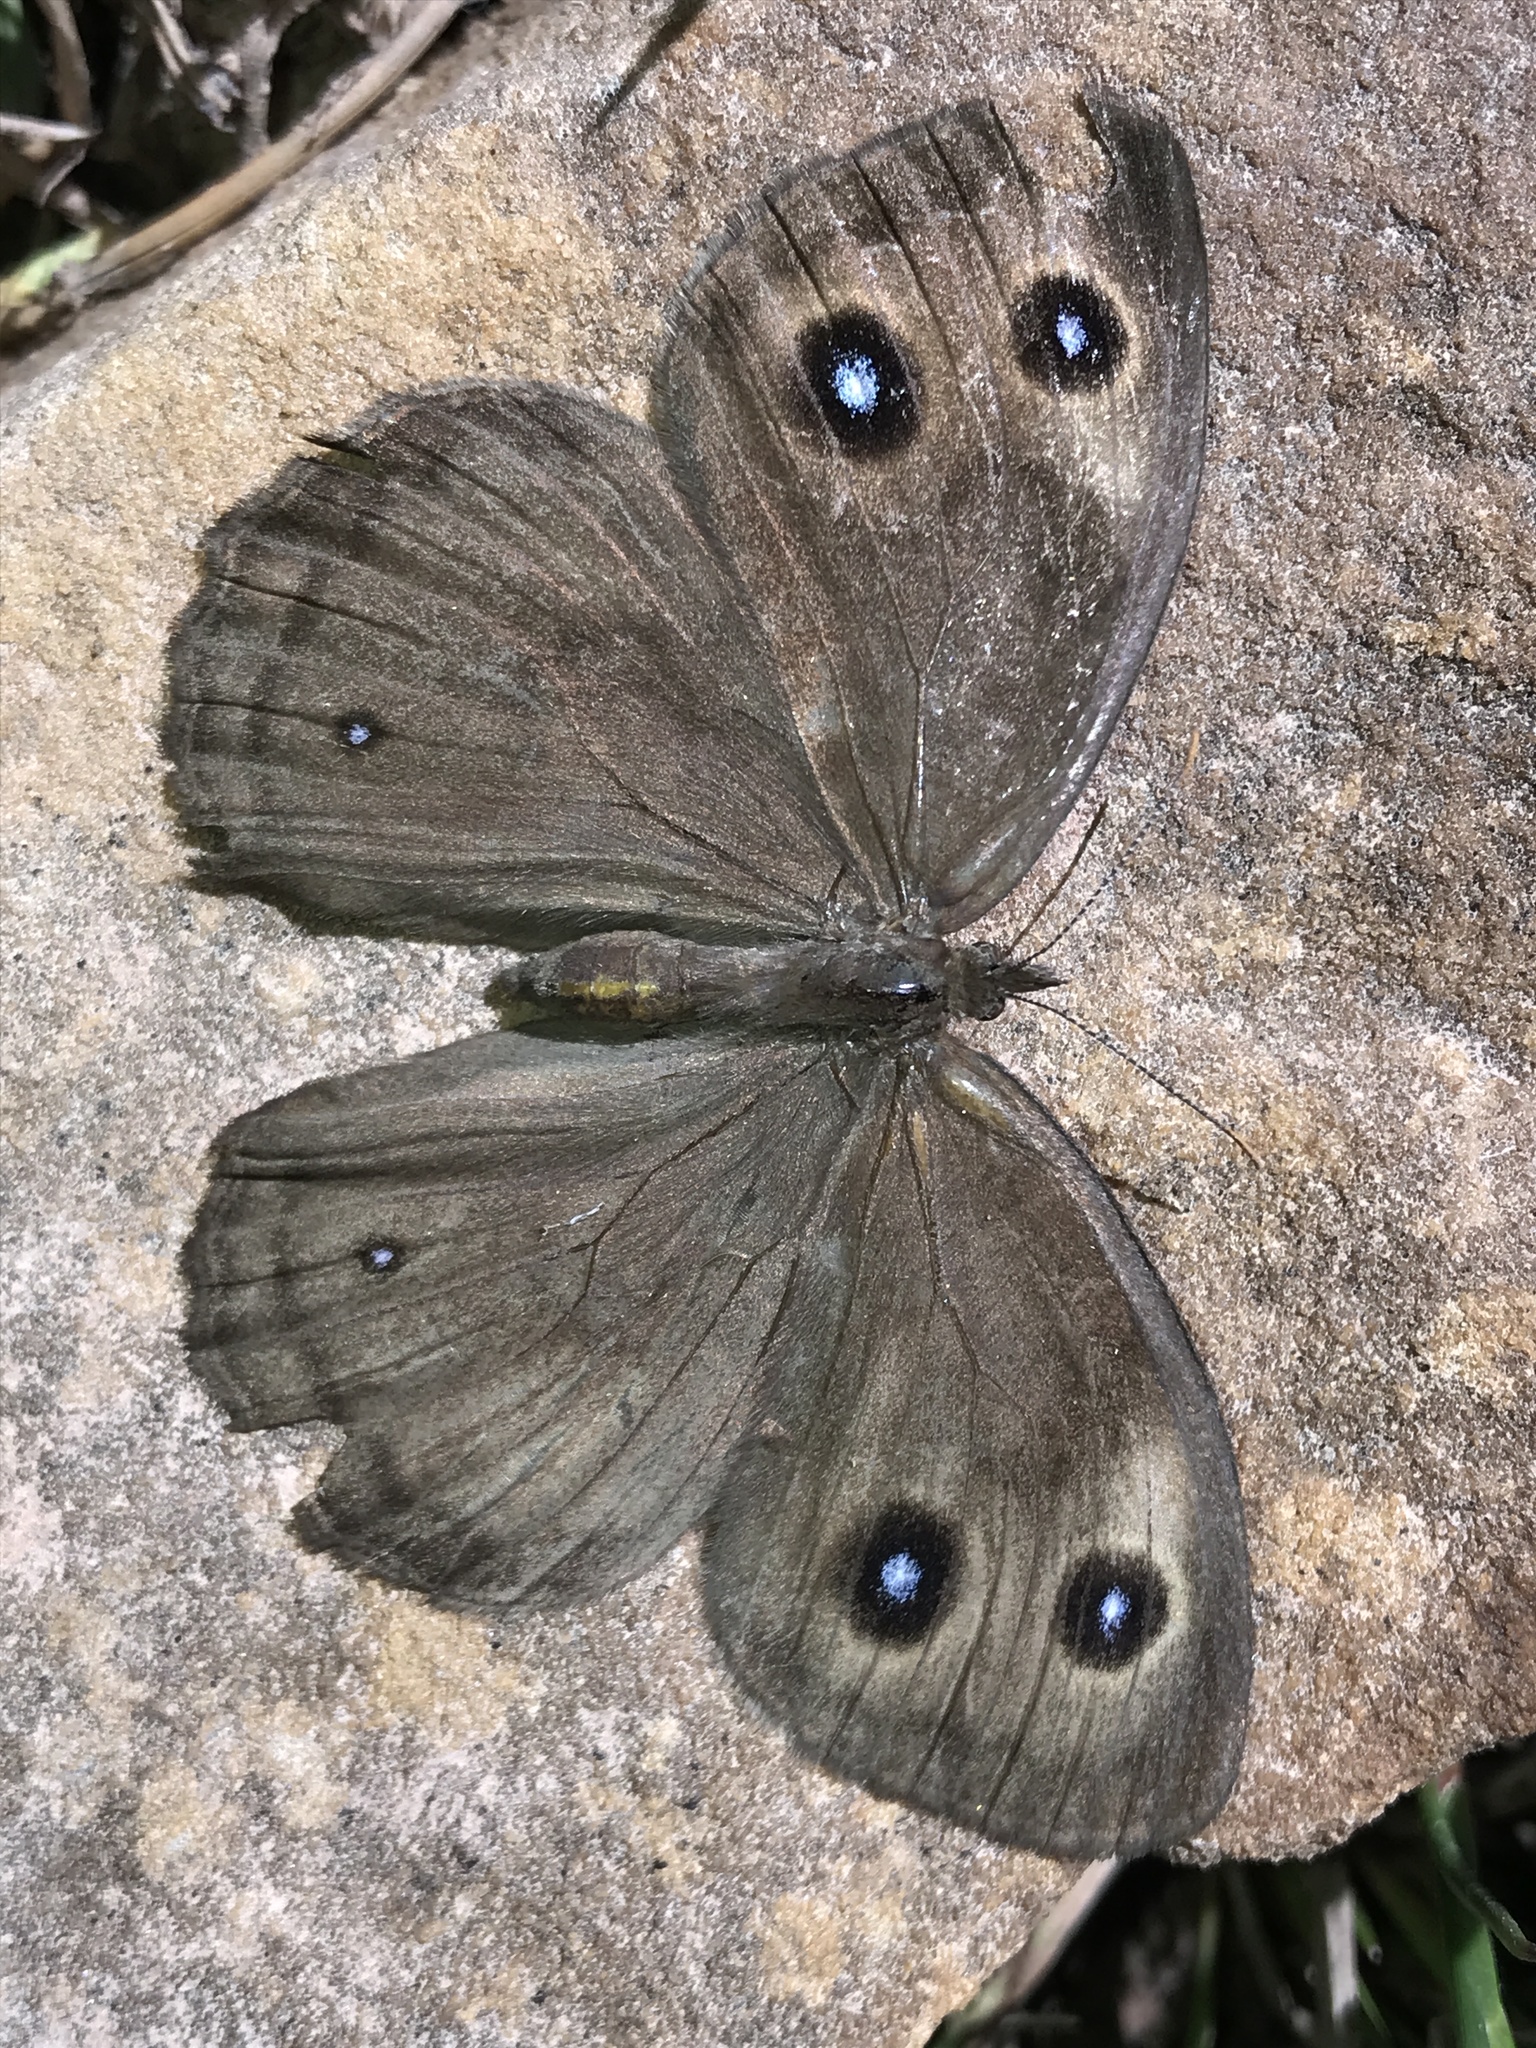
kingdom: Animalia
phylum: Arthropoda
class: Insecta
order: Lepidoptera
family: Nymphalidae
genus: Cercyonis
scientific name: Cercyonis pegala
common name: Common wood-nymph
